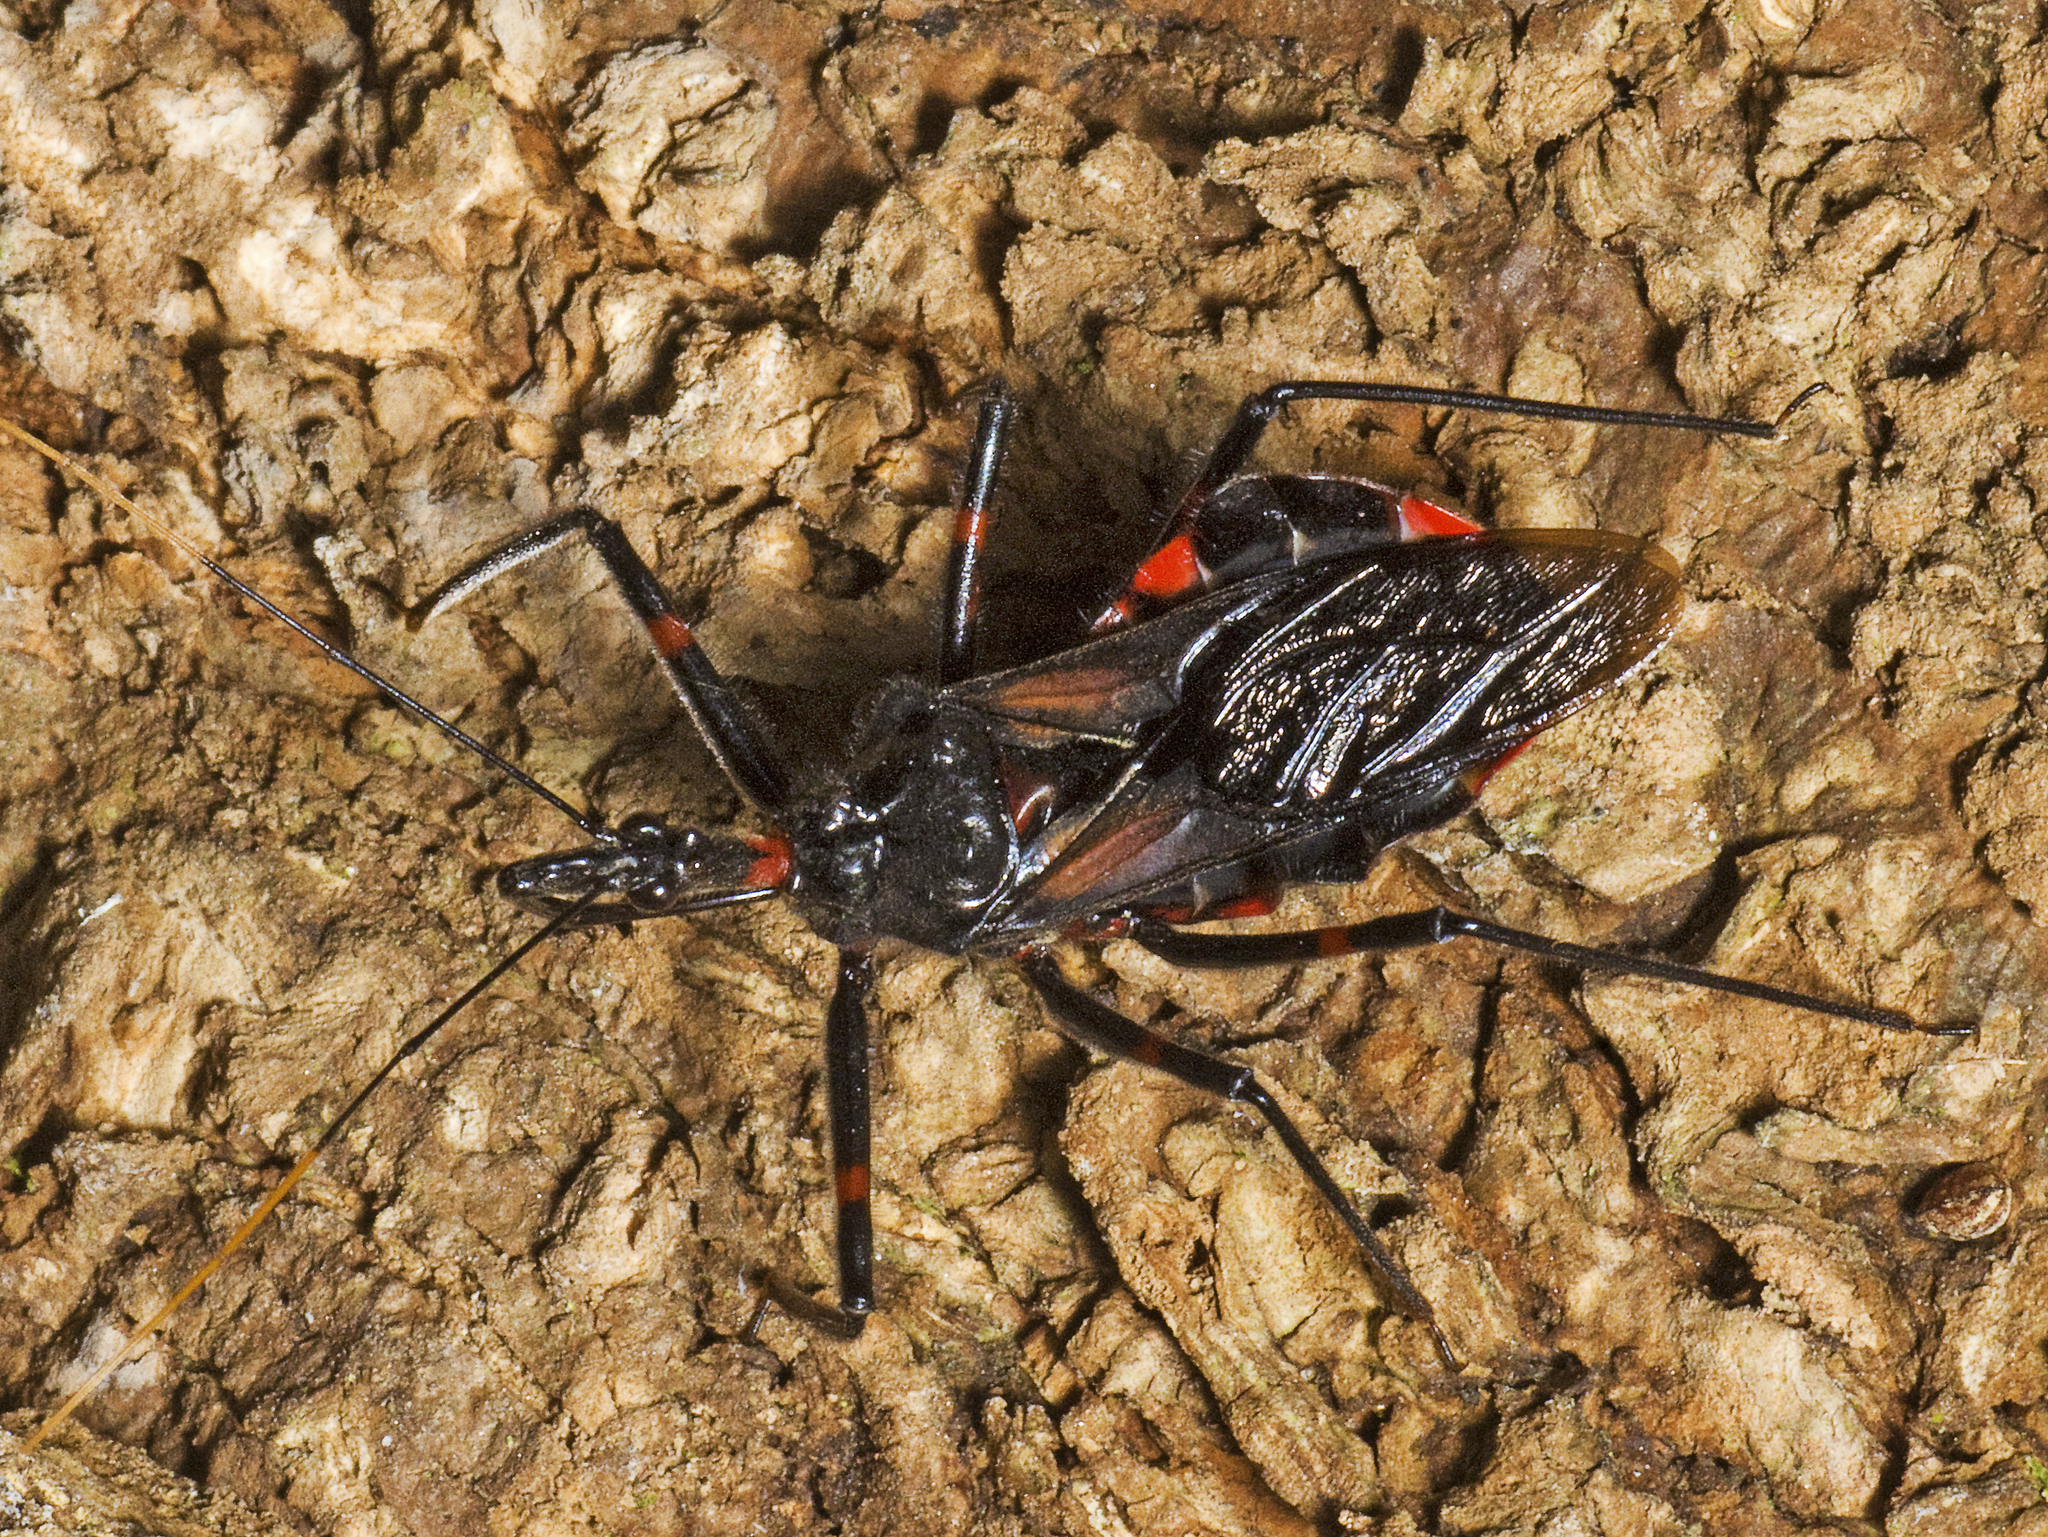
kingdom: Animalia
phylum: Arthropoda
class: Insecta
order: Hemiptera
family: Reduviidae
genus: Austrarcesius
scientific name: Austrarcesius bicolor
